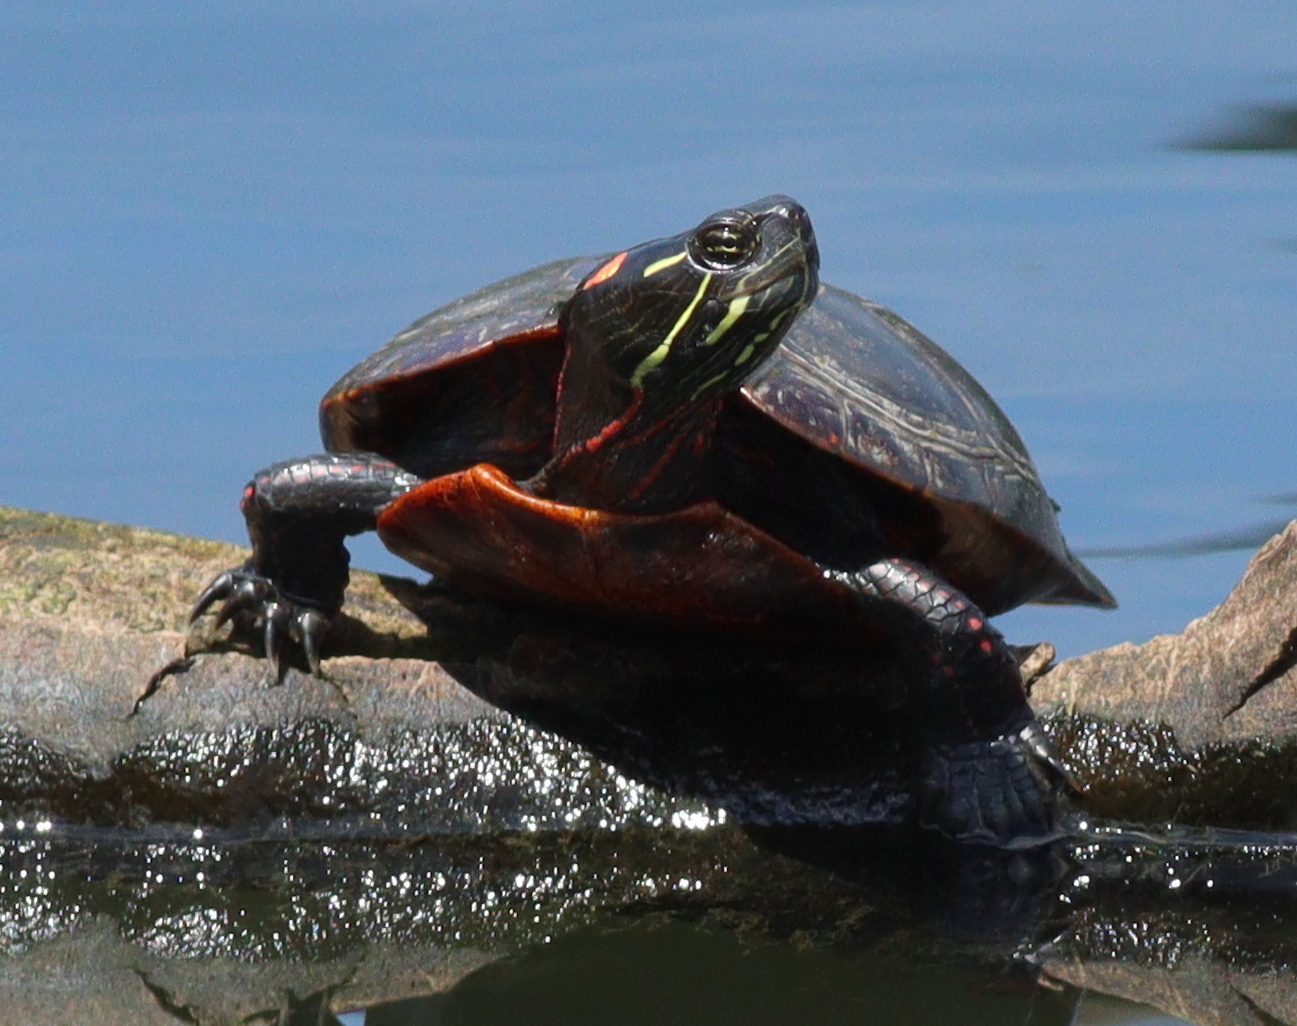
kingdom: Animalia
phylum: Chordata
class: Testudines
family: Emydidae
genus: Chrysemys
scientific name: Chrysemys picta
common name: Painted turtle
